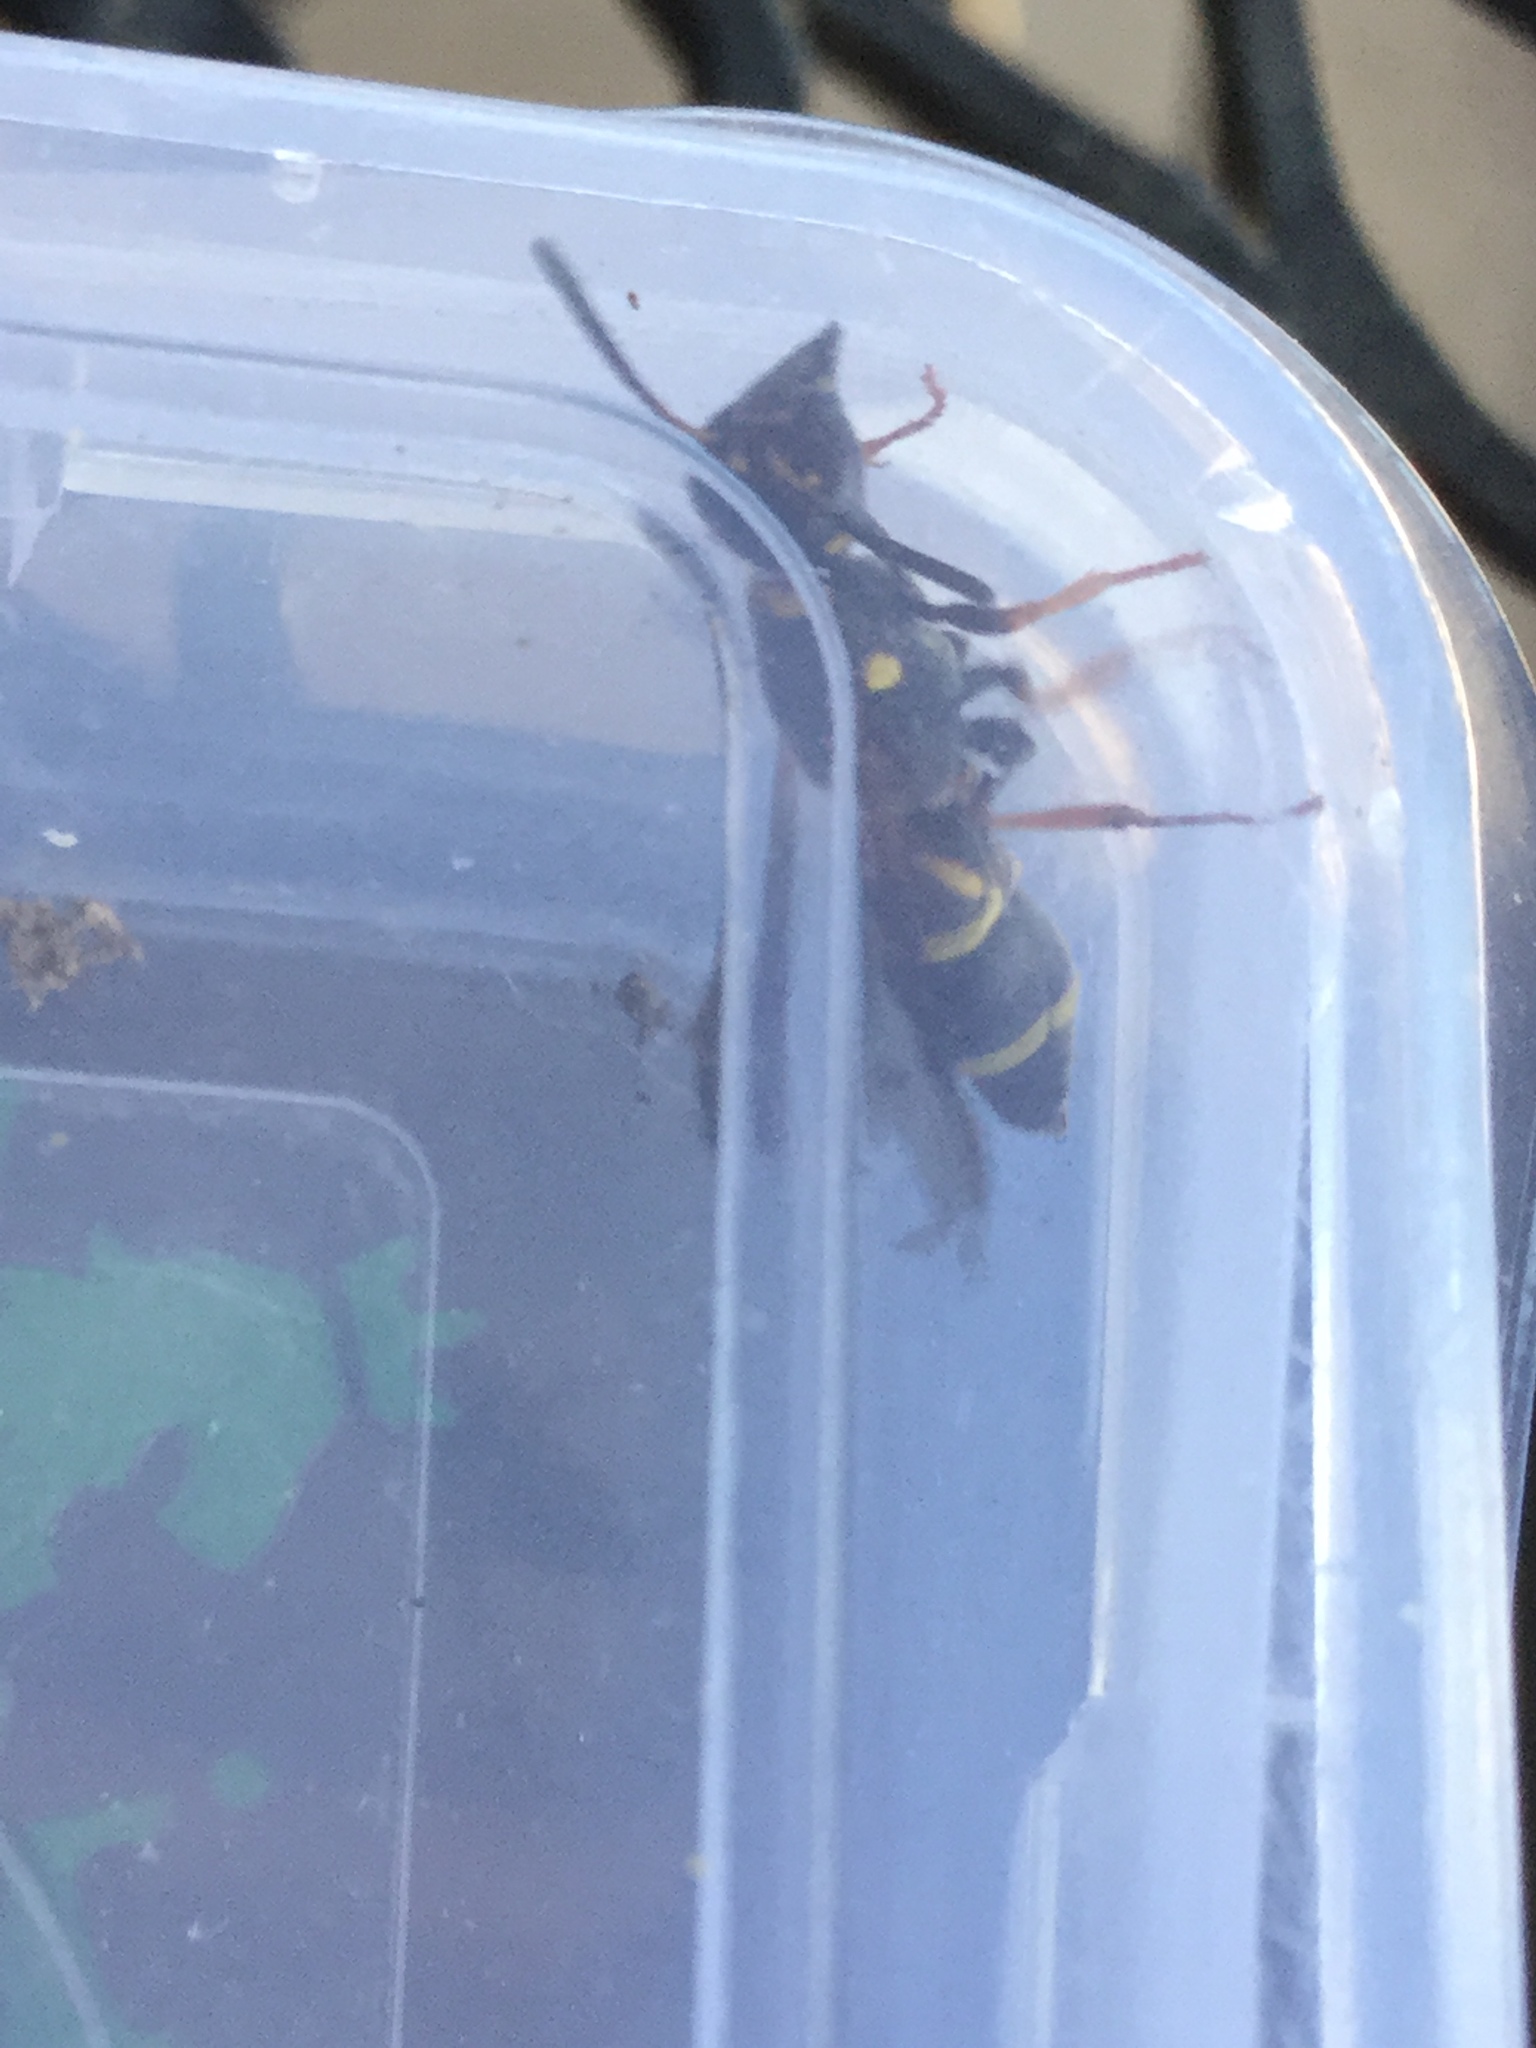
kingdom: Animalia
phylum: Arthropoda
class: Insecta
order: Hymenoptera
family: Eumenidae
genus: Parancistrocerus
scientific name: Parancistrocerus fulvipes
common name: Potter wasp
